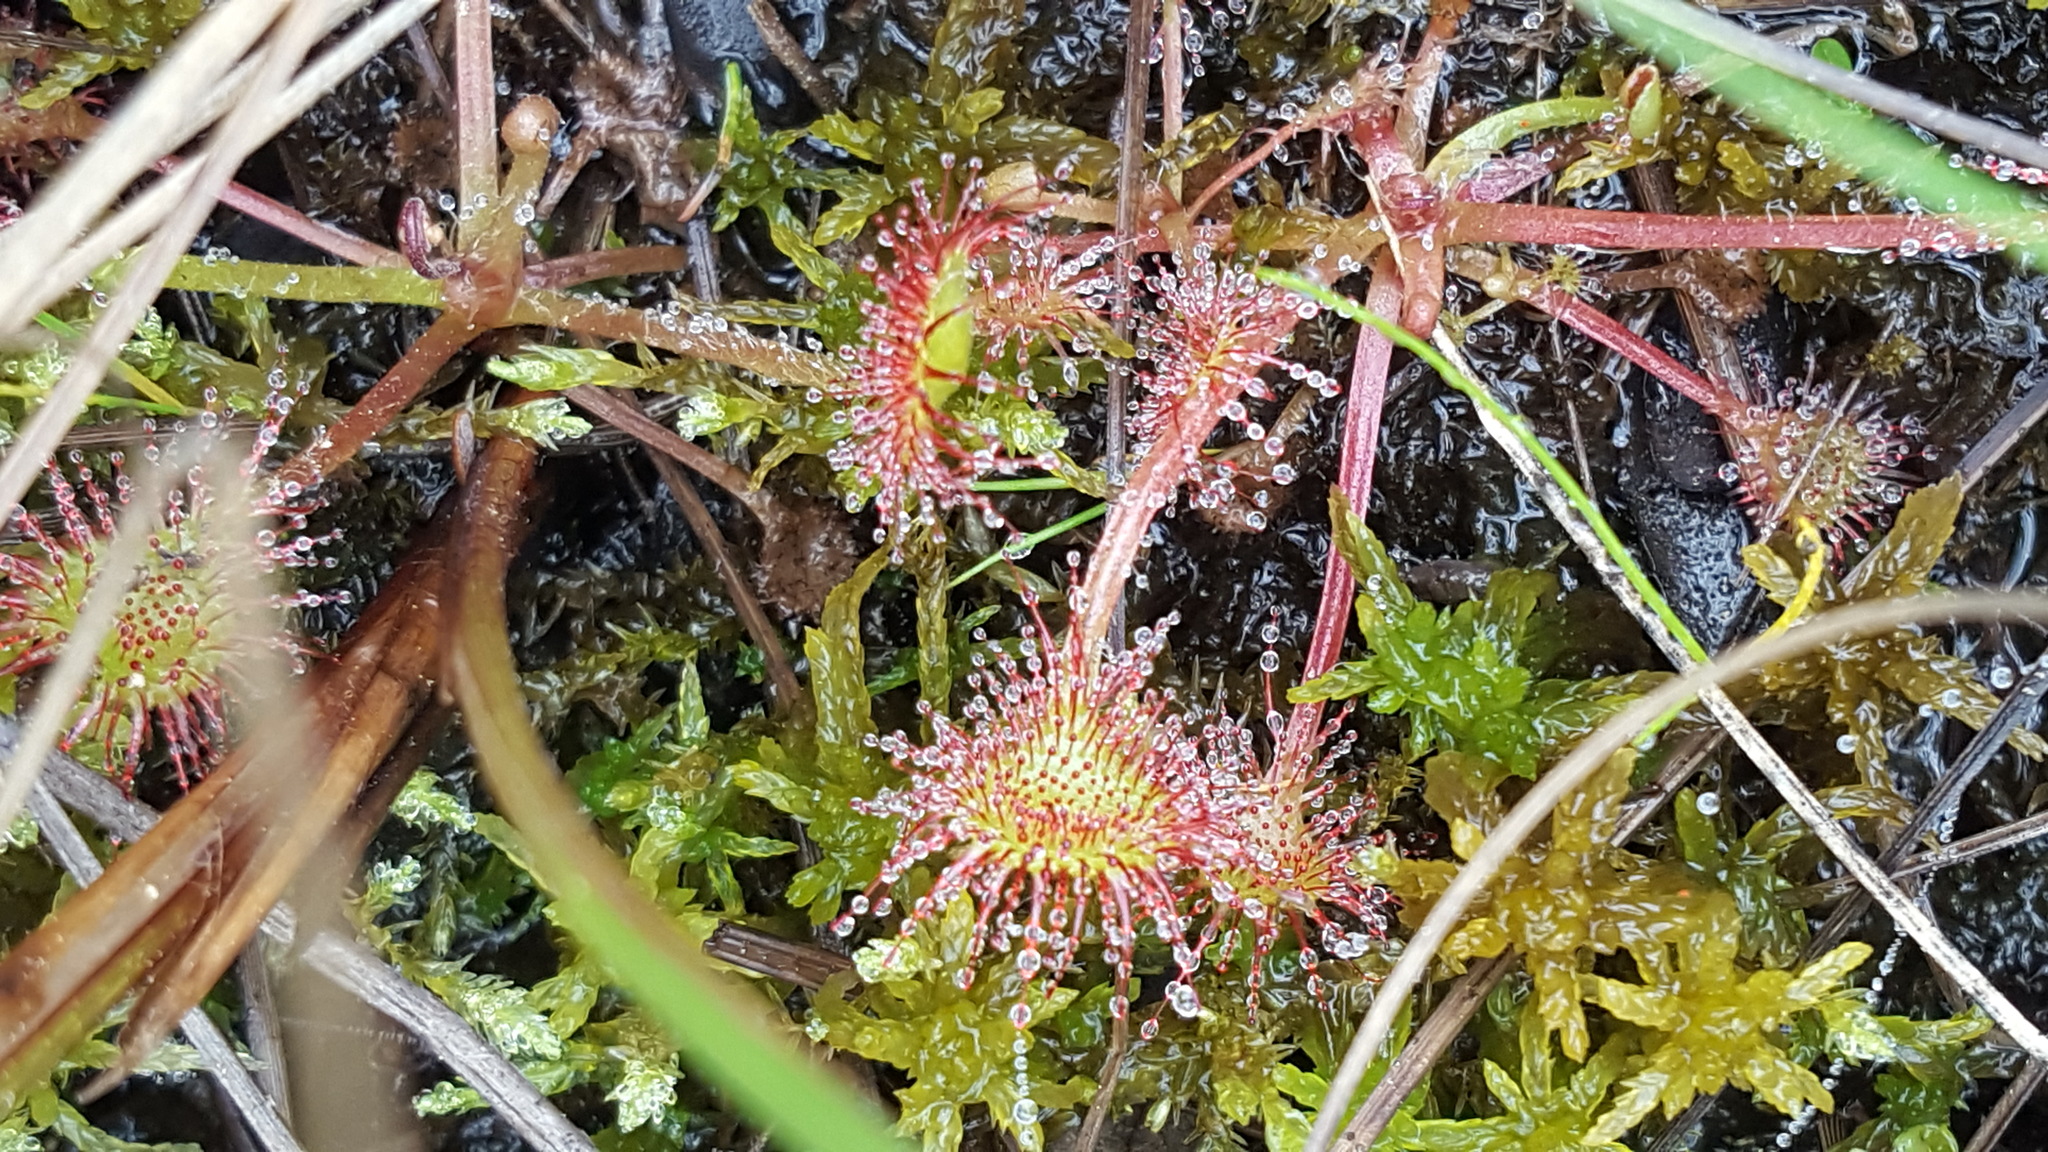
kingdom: Plantae
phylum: Tracheophyta
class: Magnoliopsida
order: Caryophyllales
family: Droseraceae
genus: Drosera
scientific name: Drosera rotundifolia
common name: Round-leaved sundew
